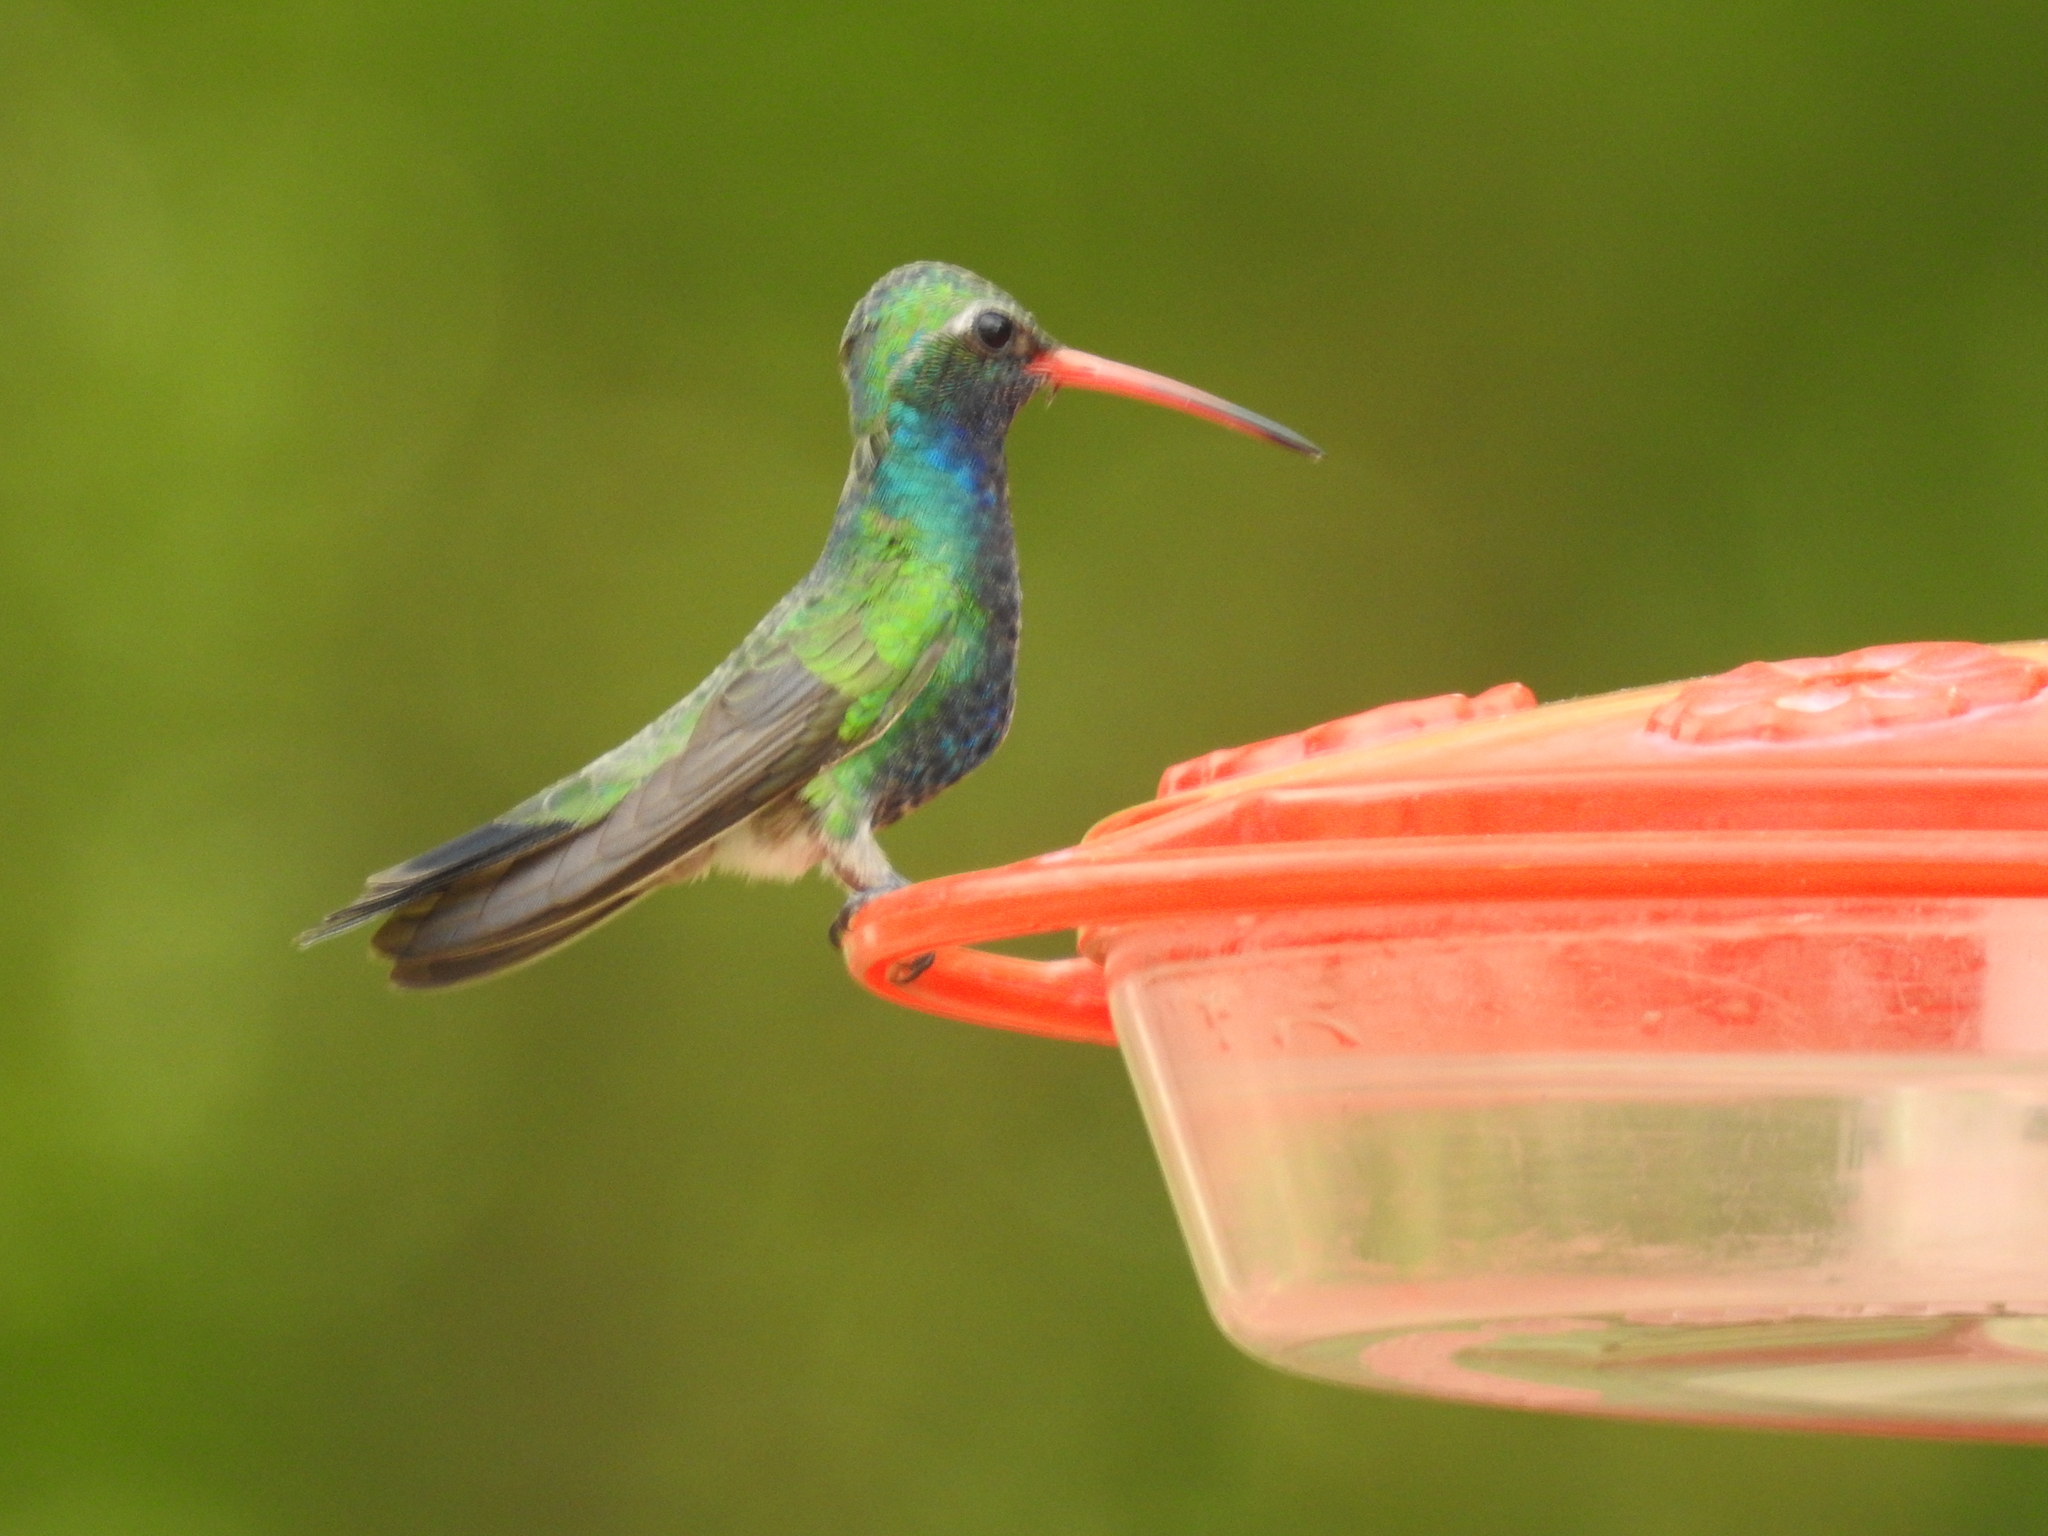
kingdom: Animalia
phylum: Chordata
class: Aves
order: Apodiformes
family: Trochilidae
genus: Cynanthus
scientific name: Cynanthus latirostris
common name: Broad-billed hummingbird
